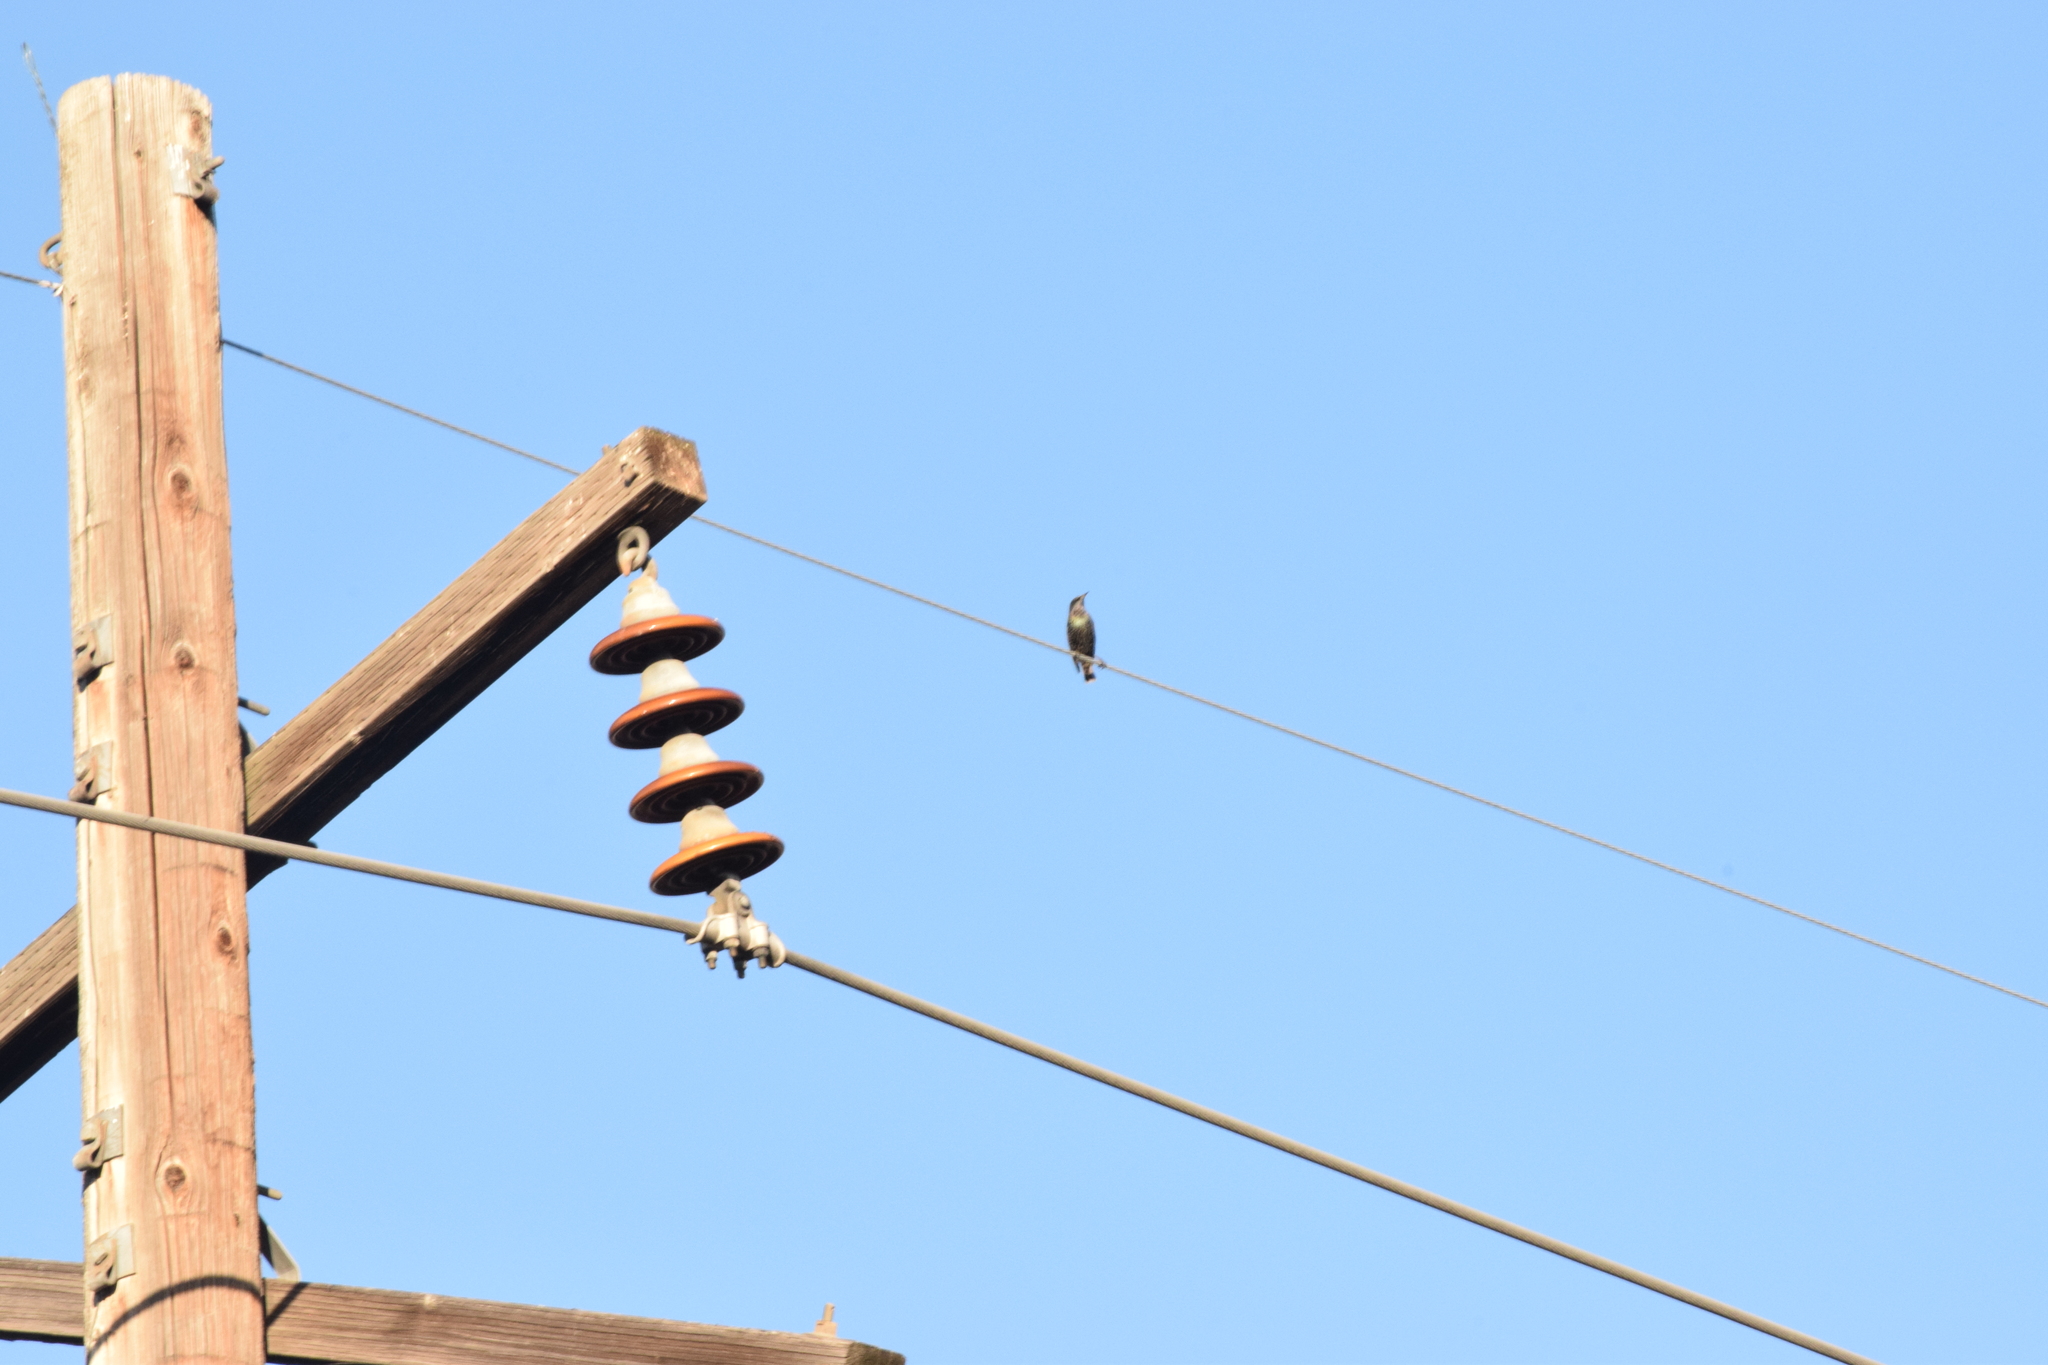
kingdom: Animalia
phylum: Chordata
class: Aves
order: Passeriformes
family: Sturnidae
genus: Sturnus
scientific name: Sturnus vulgaris
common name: Common starling
